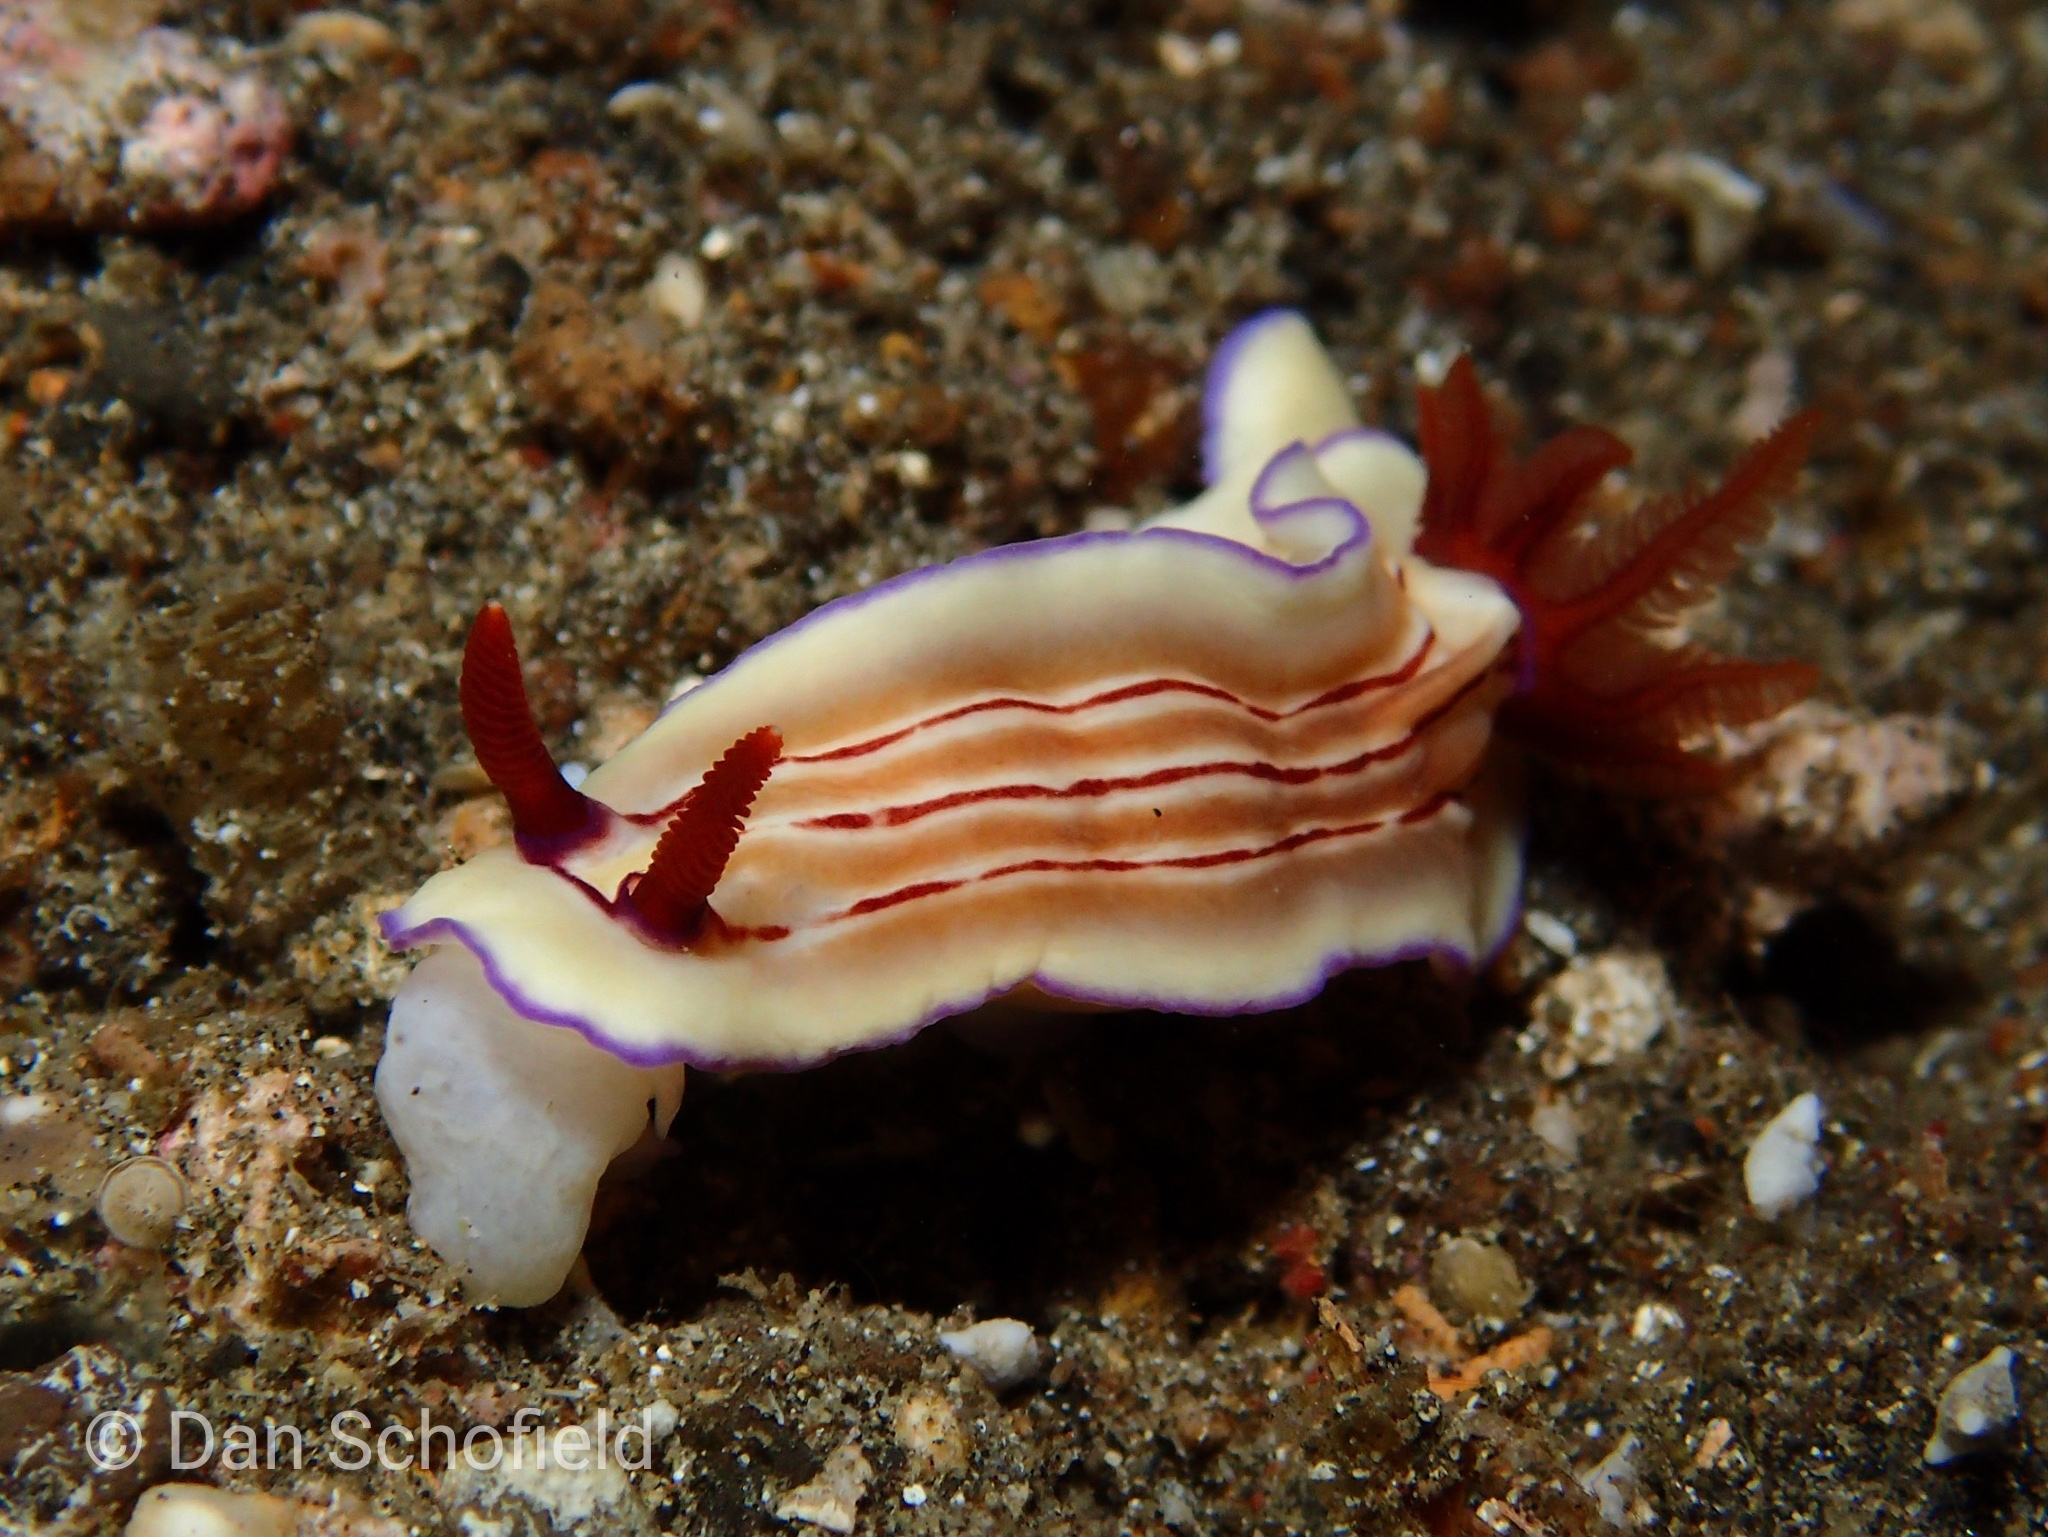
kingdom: Animalia
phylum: Mollusca
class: Gastropoda
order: Nudibranchia
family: Chromodorididae
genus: Hypselodoris
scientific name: Hypselodoris emma
